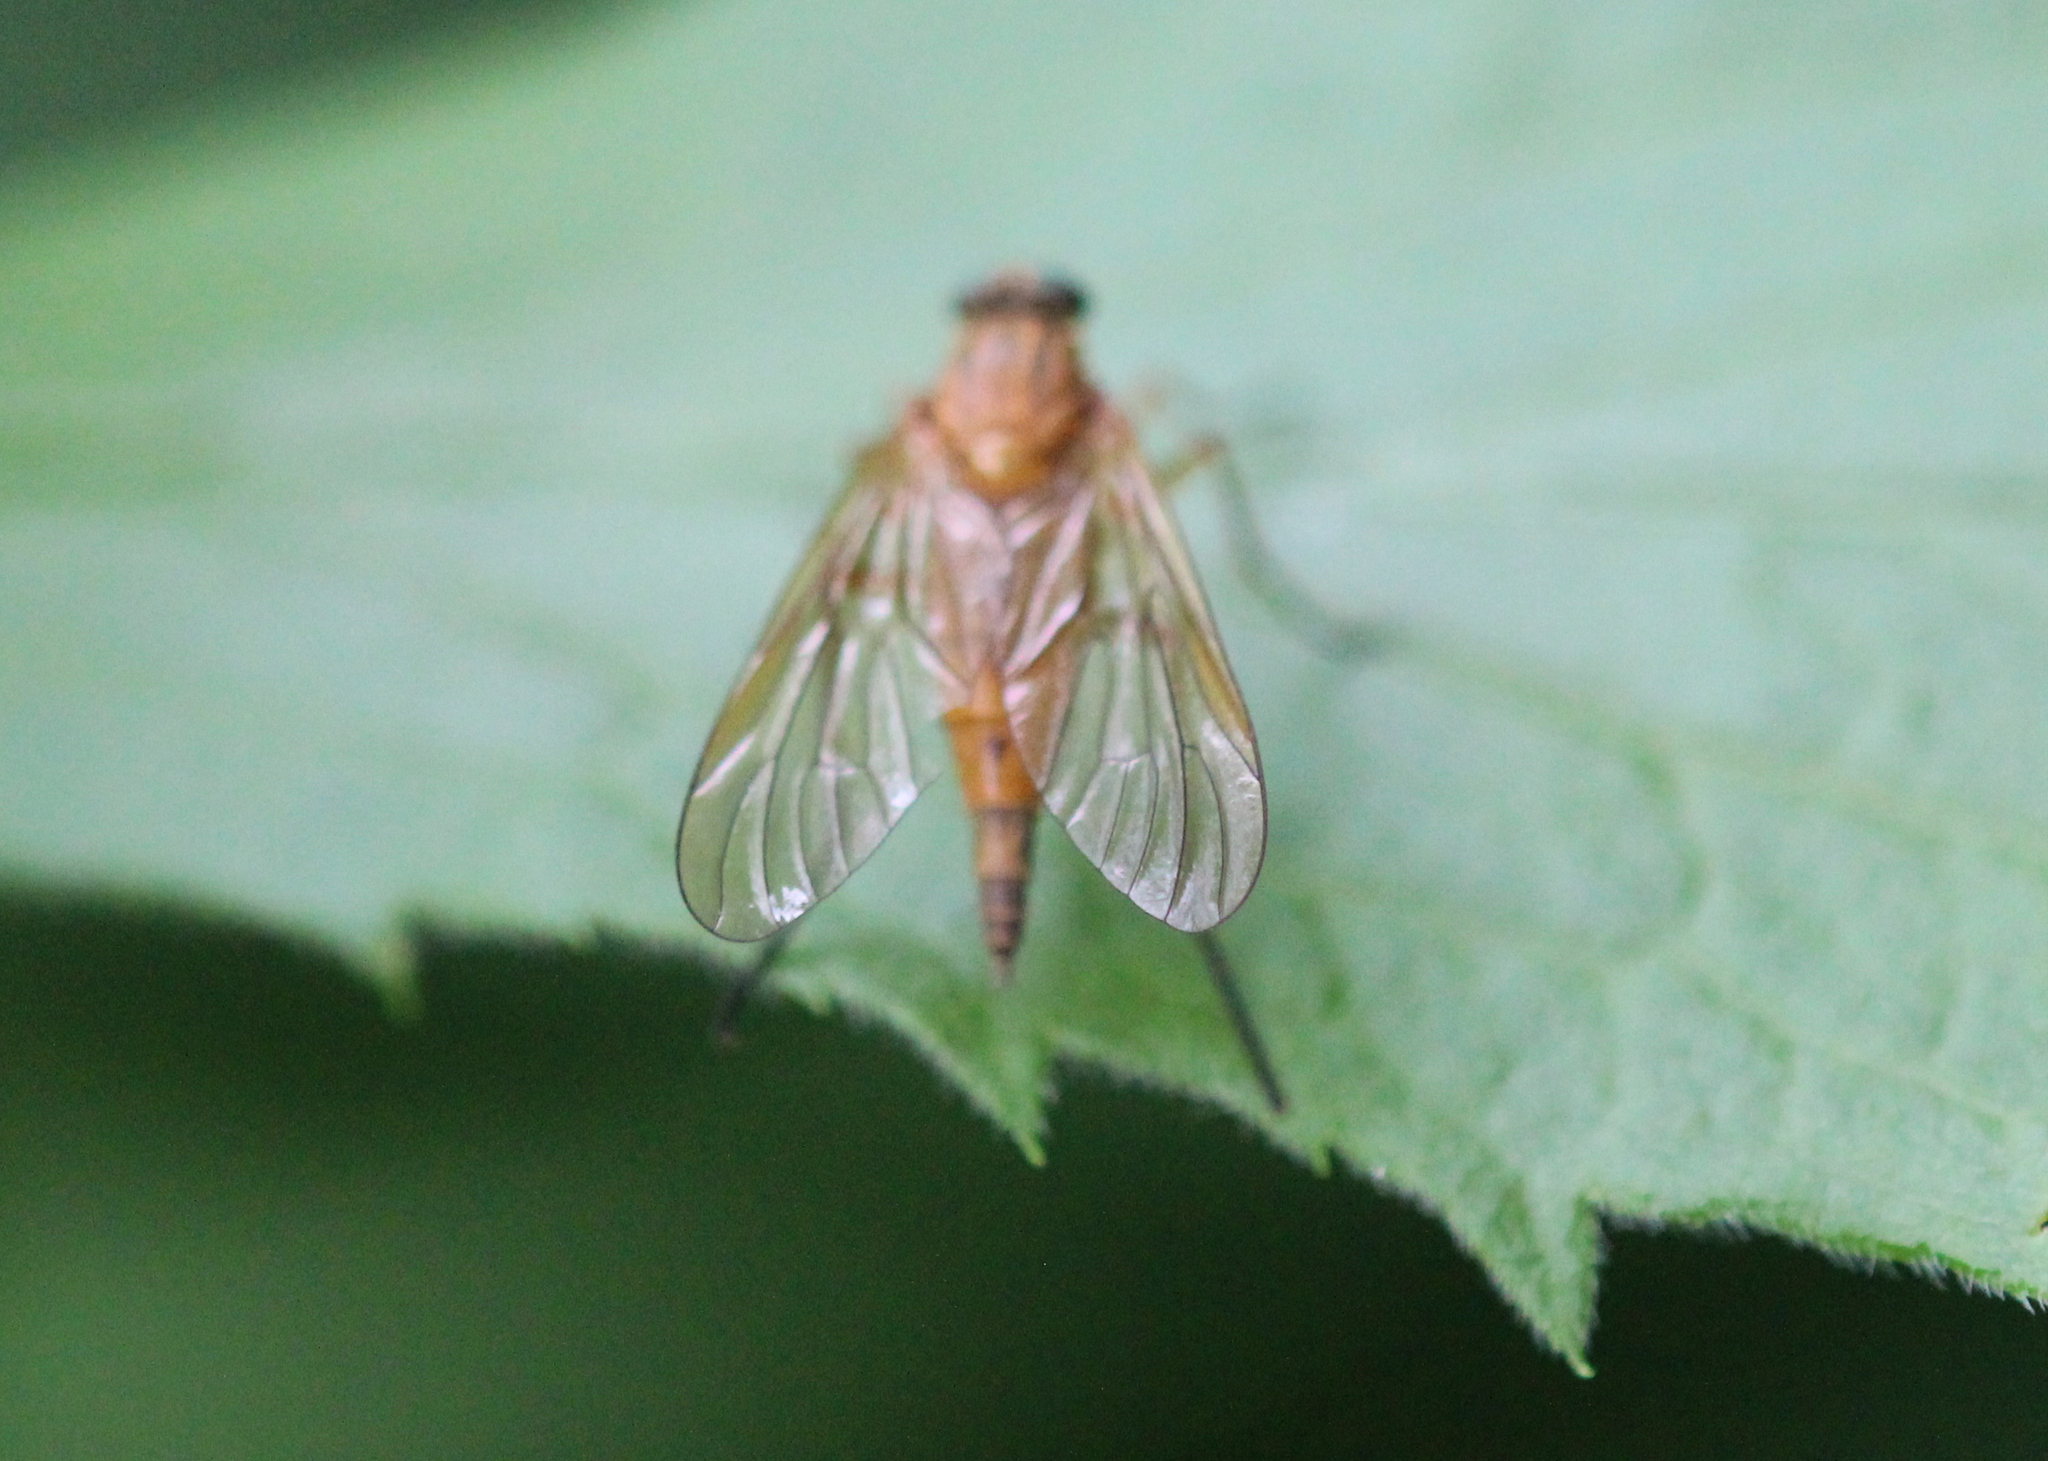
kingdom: Animalia
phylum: Arthropoda
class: Insecta
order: Diptera
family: Rhagionidae
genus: Rhagio
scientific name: Rhagio tringaria
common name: Marsh snipefly
